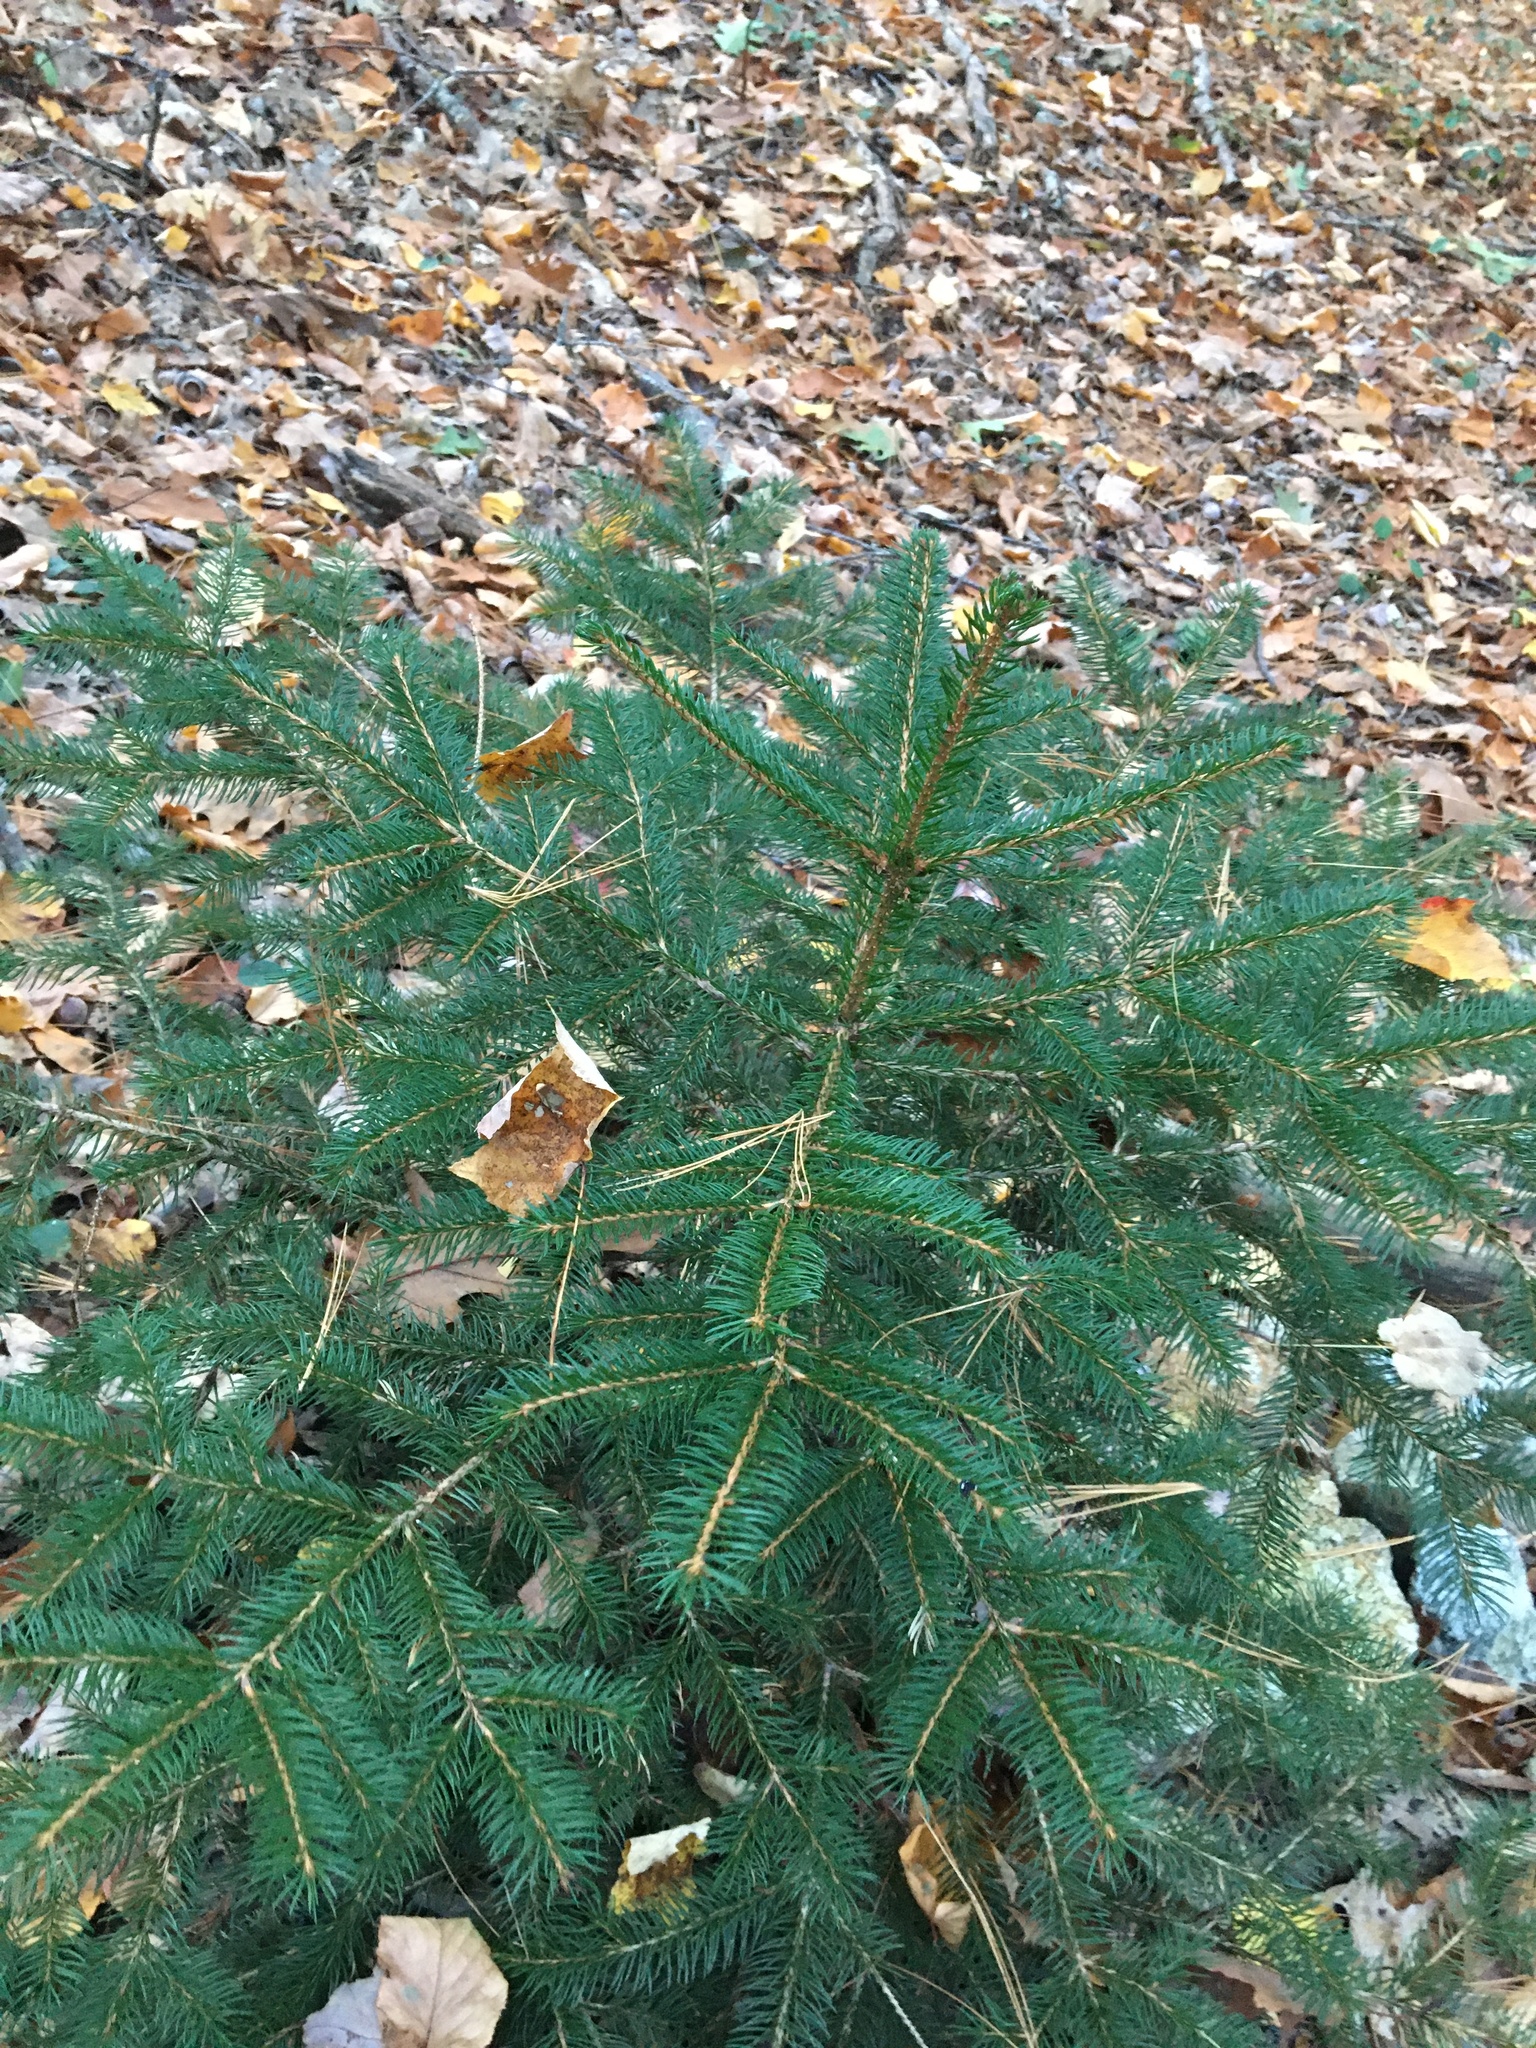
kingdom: Plantae
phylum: Tracheophyta
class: Pinopsida
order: Pinales
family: Pinaceae
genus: Picea
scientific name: Picea abies
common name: Norway spruce
